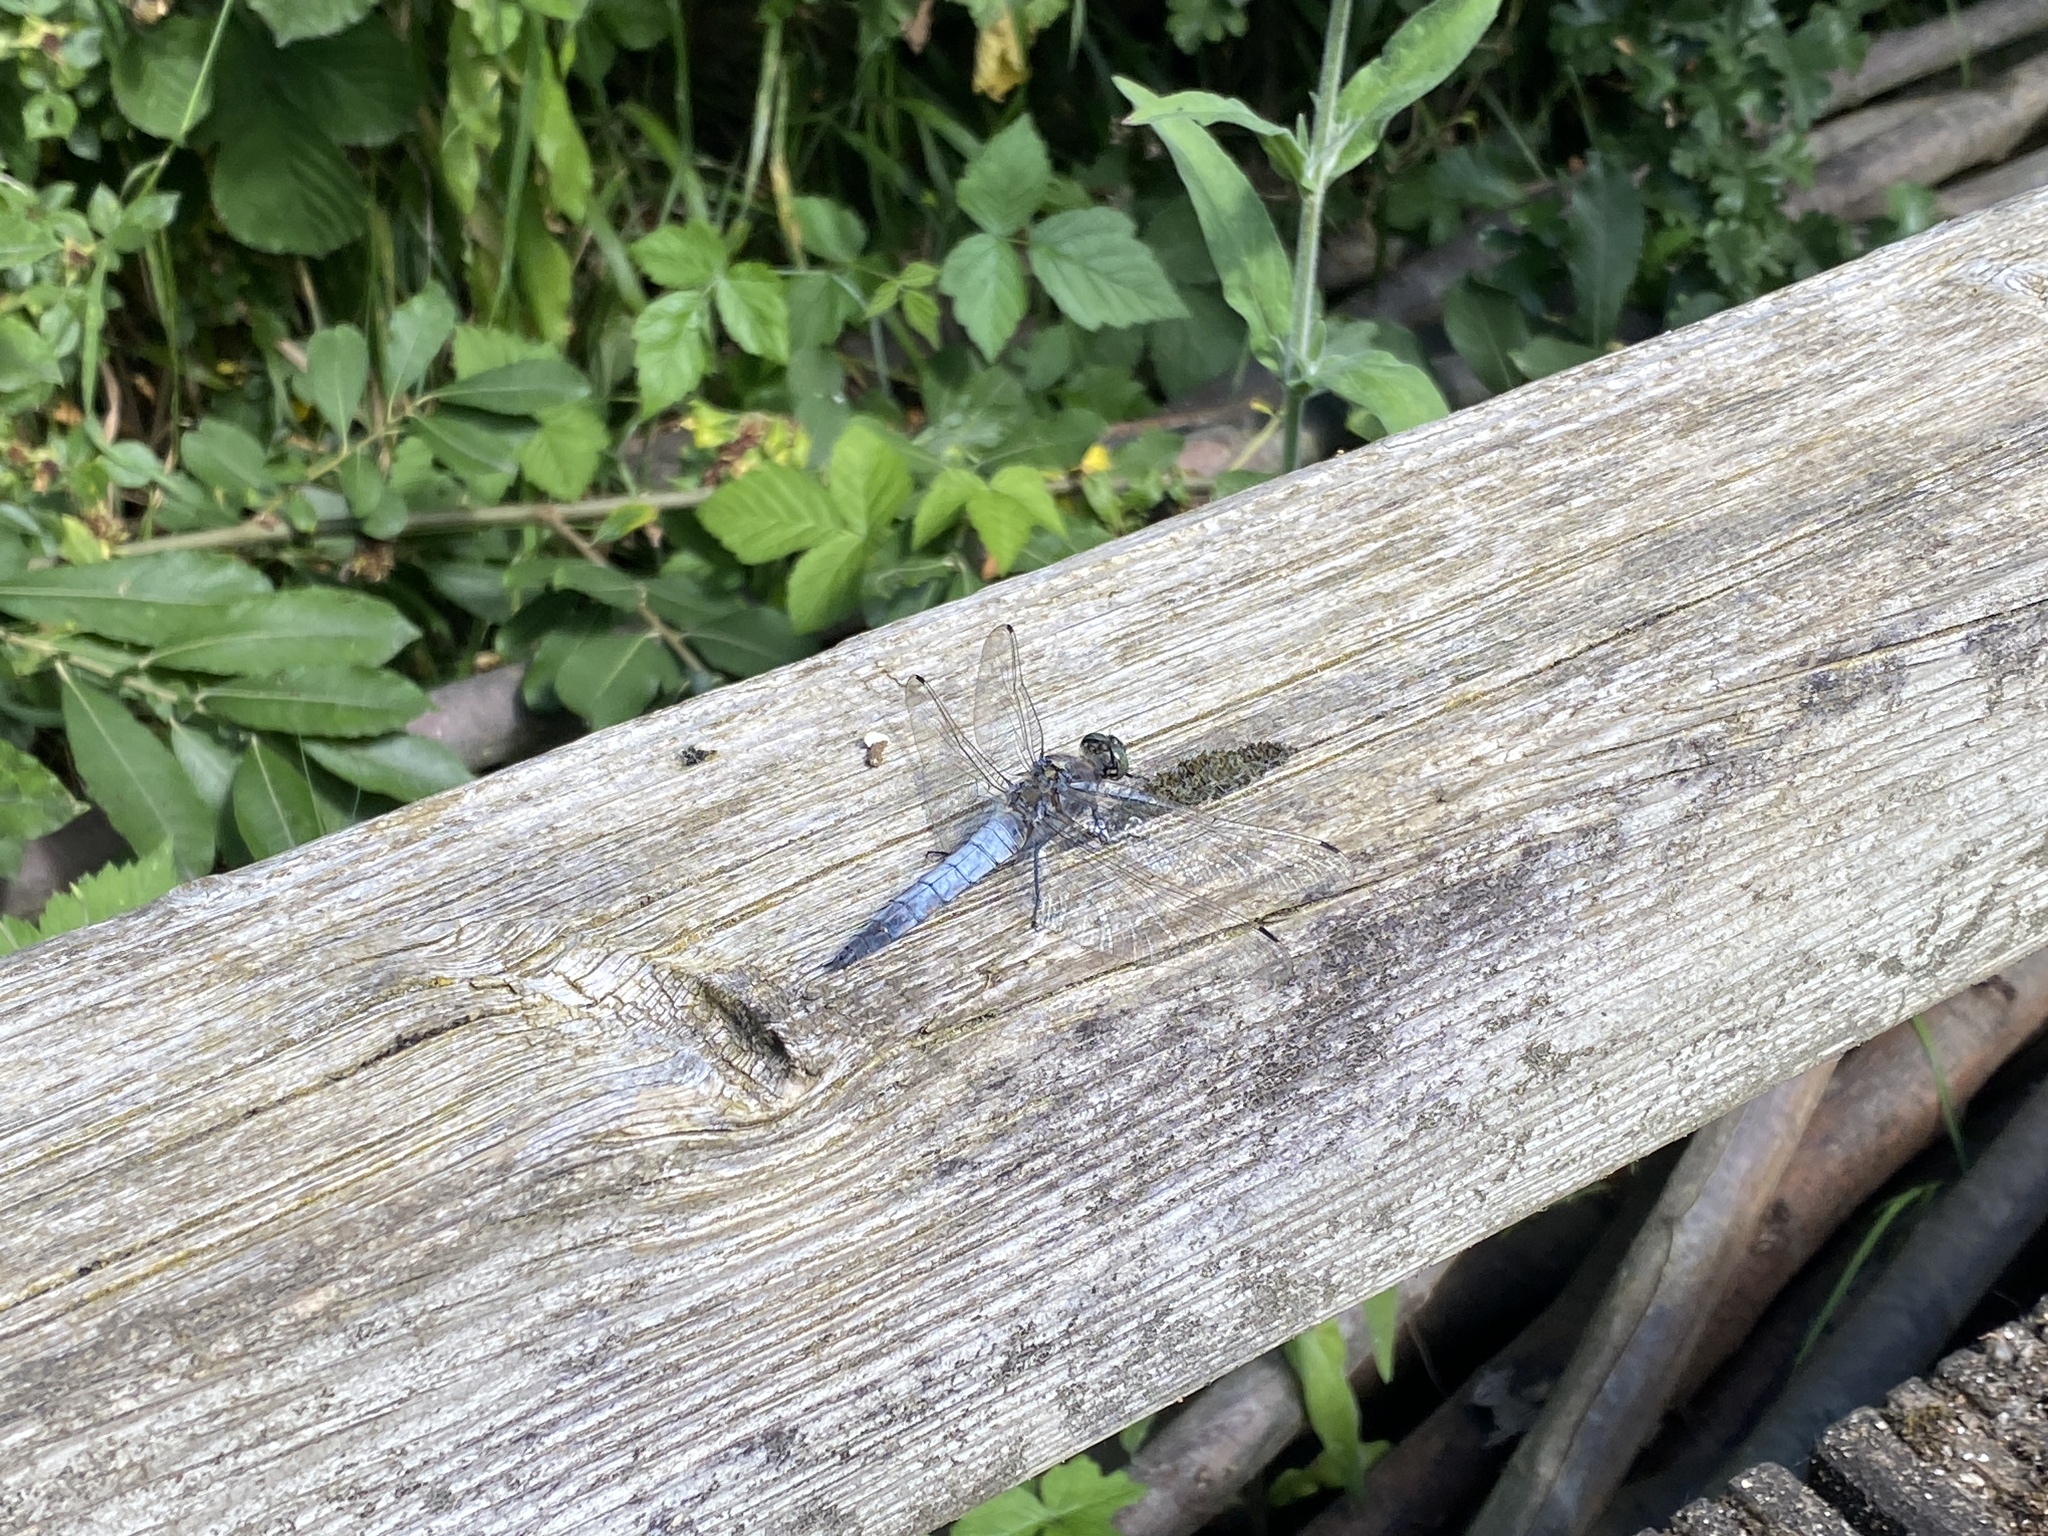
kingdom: Animalia
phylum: Arthropoda
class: Insecta
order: Odonata
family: Libellulidae
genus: Orthetrum
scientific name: Orthetrum cancellatum
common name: Black-tailed skimmer
